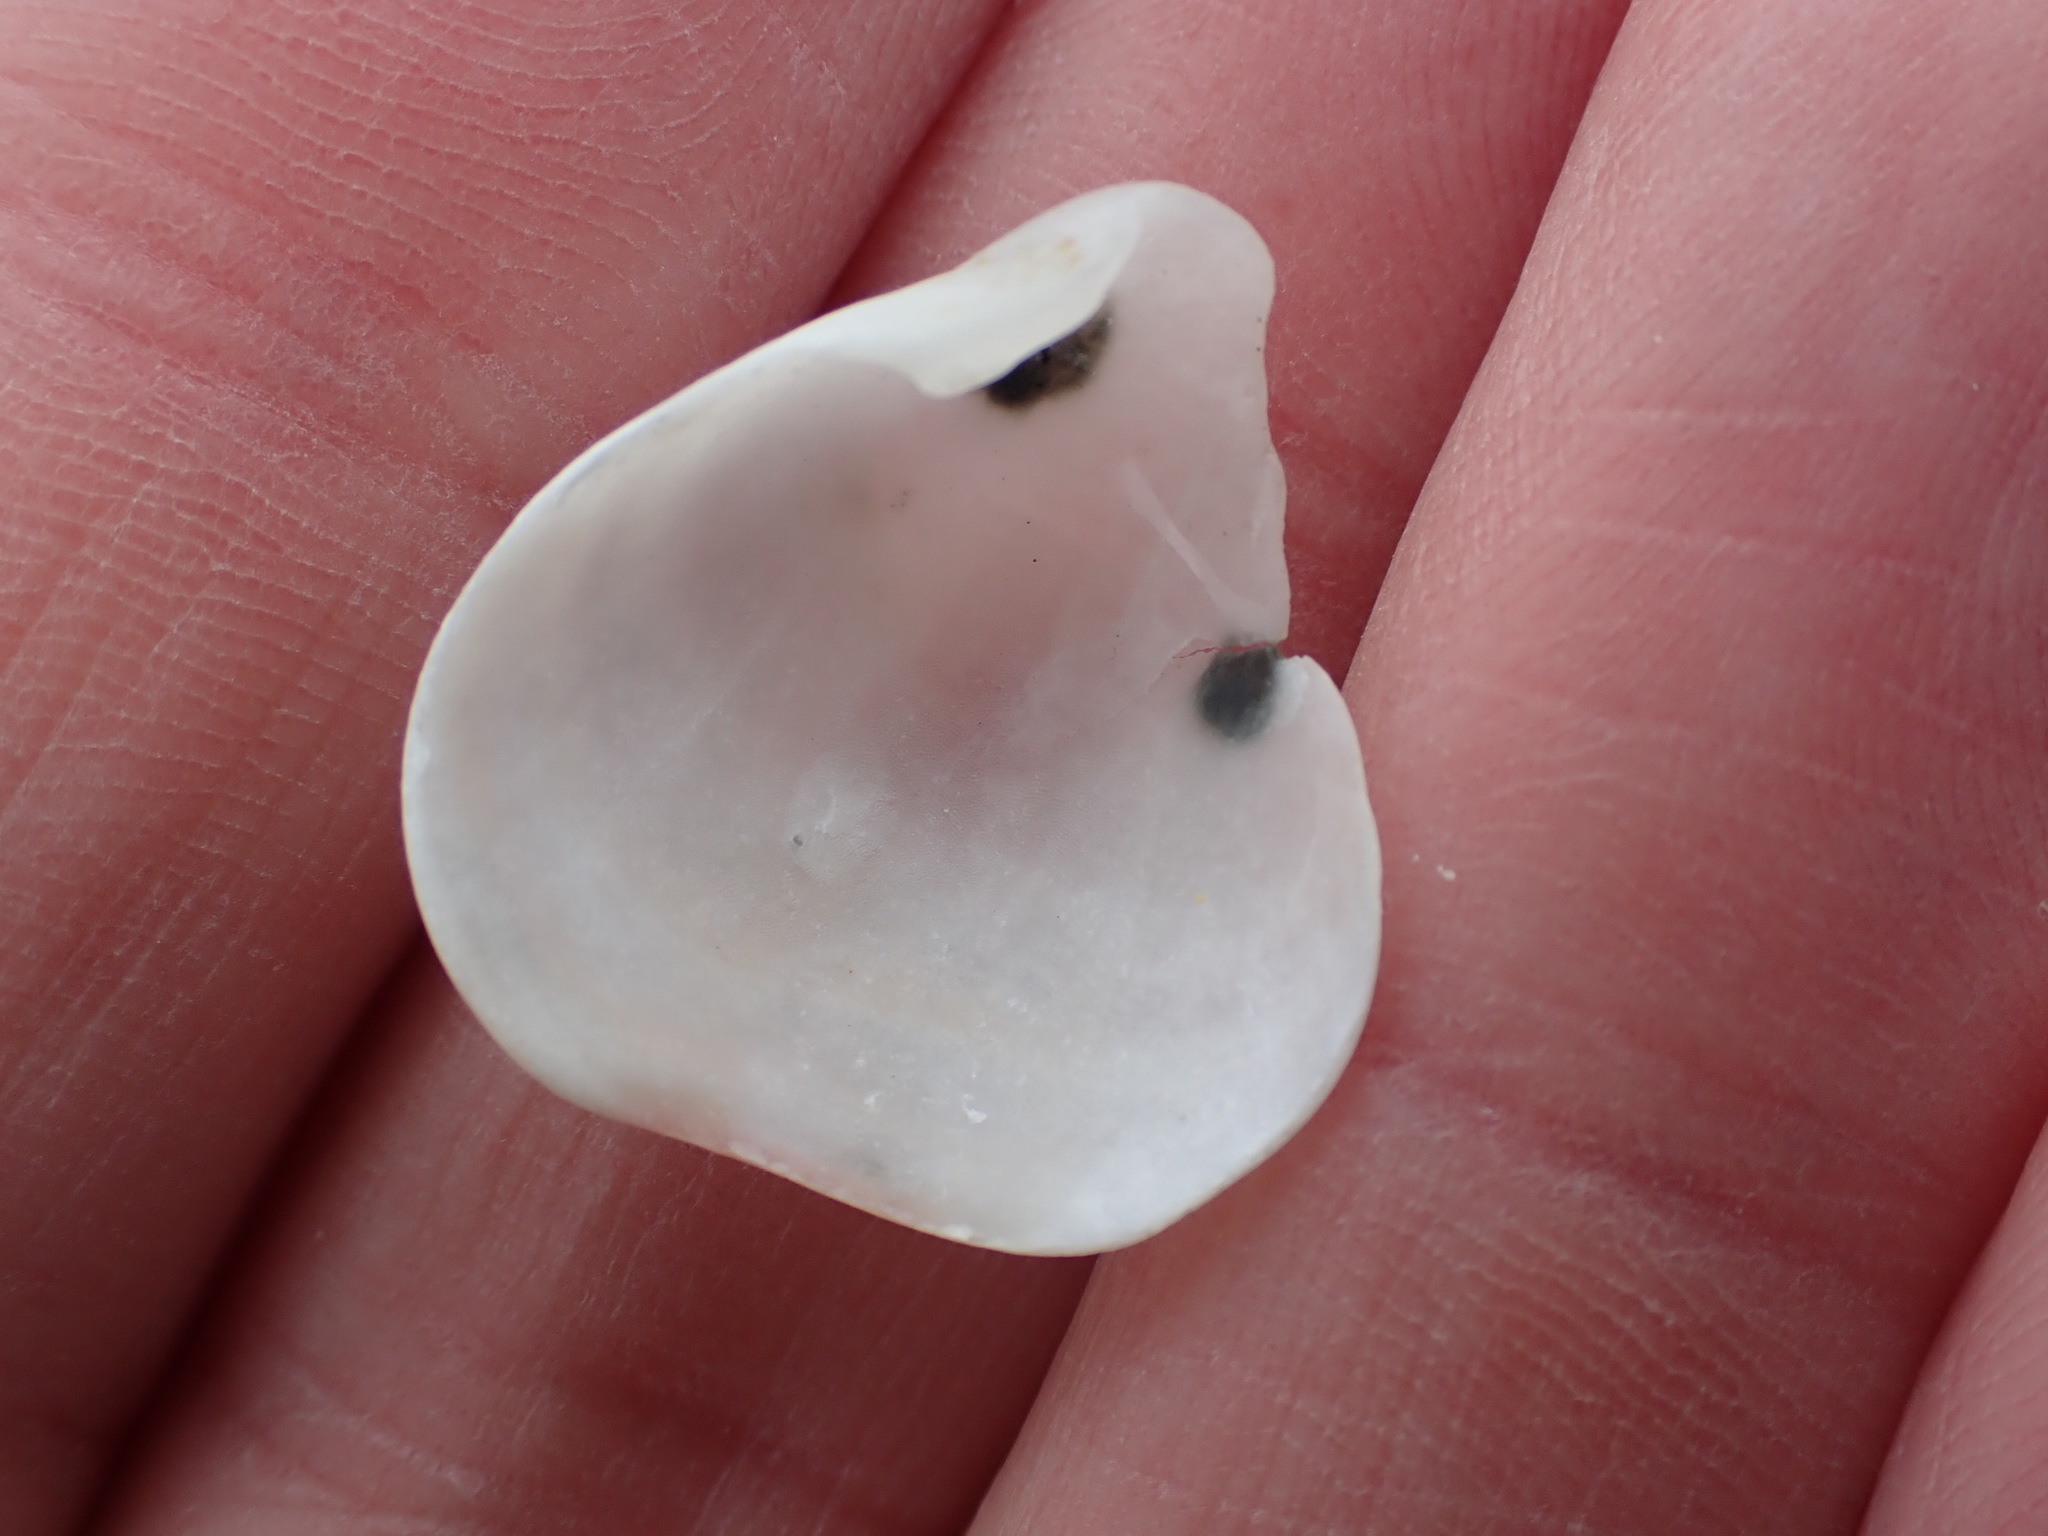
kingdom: Animalia
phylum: Brachiopoda
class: Rhynchonellata
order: Terebratulida
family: Terebratellidae
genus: Calloria
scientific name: Calloria inconspicua
